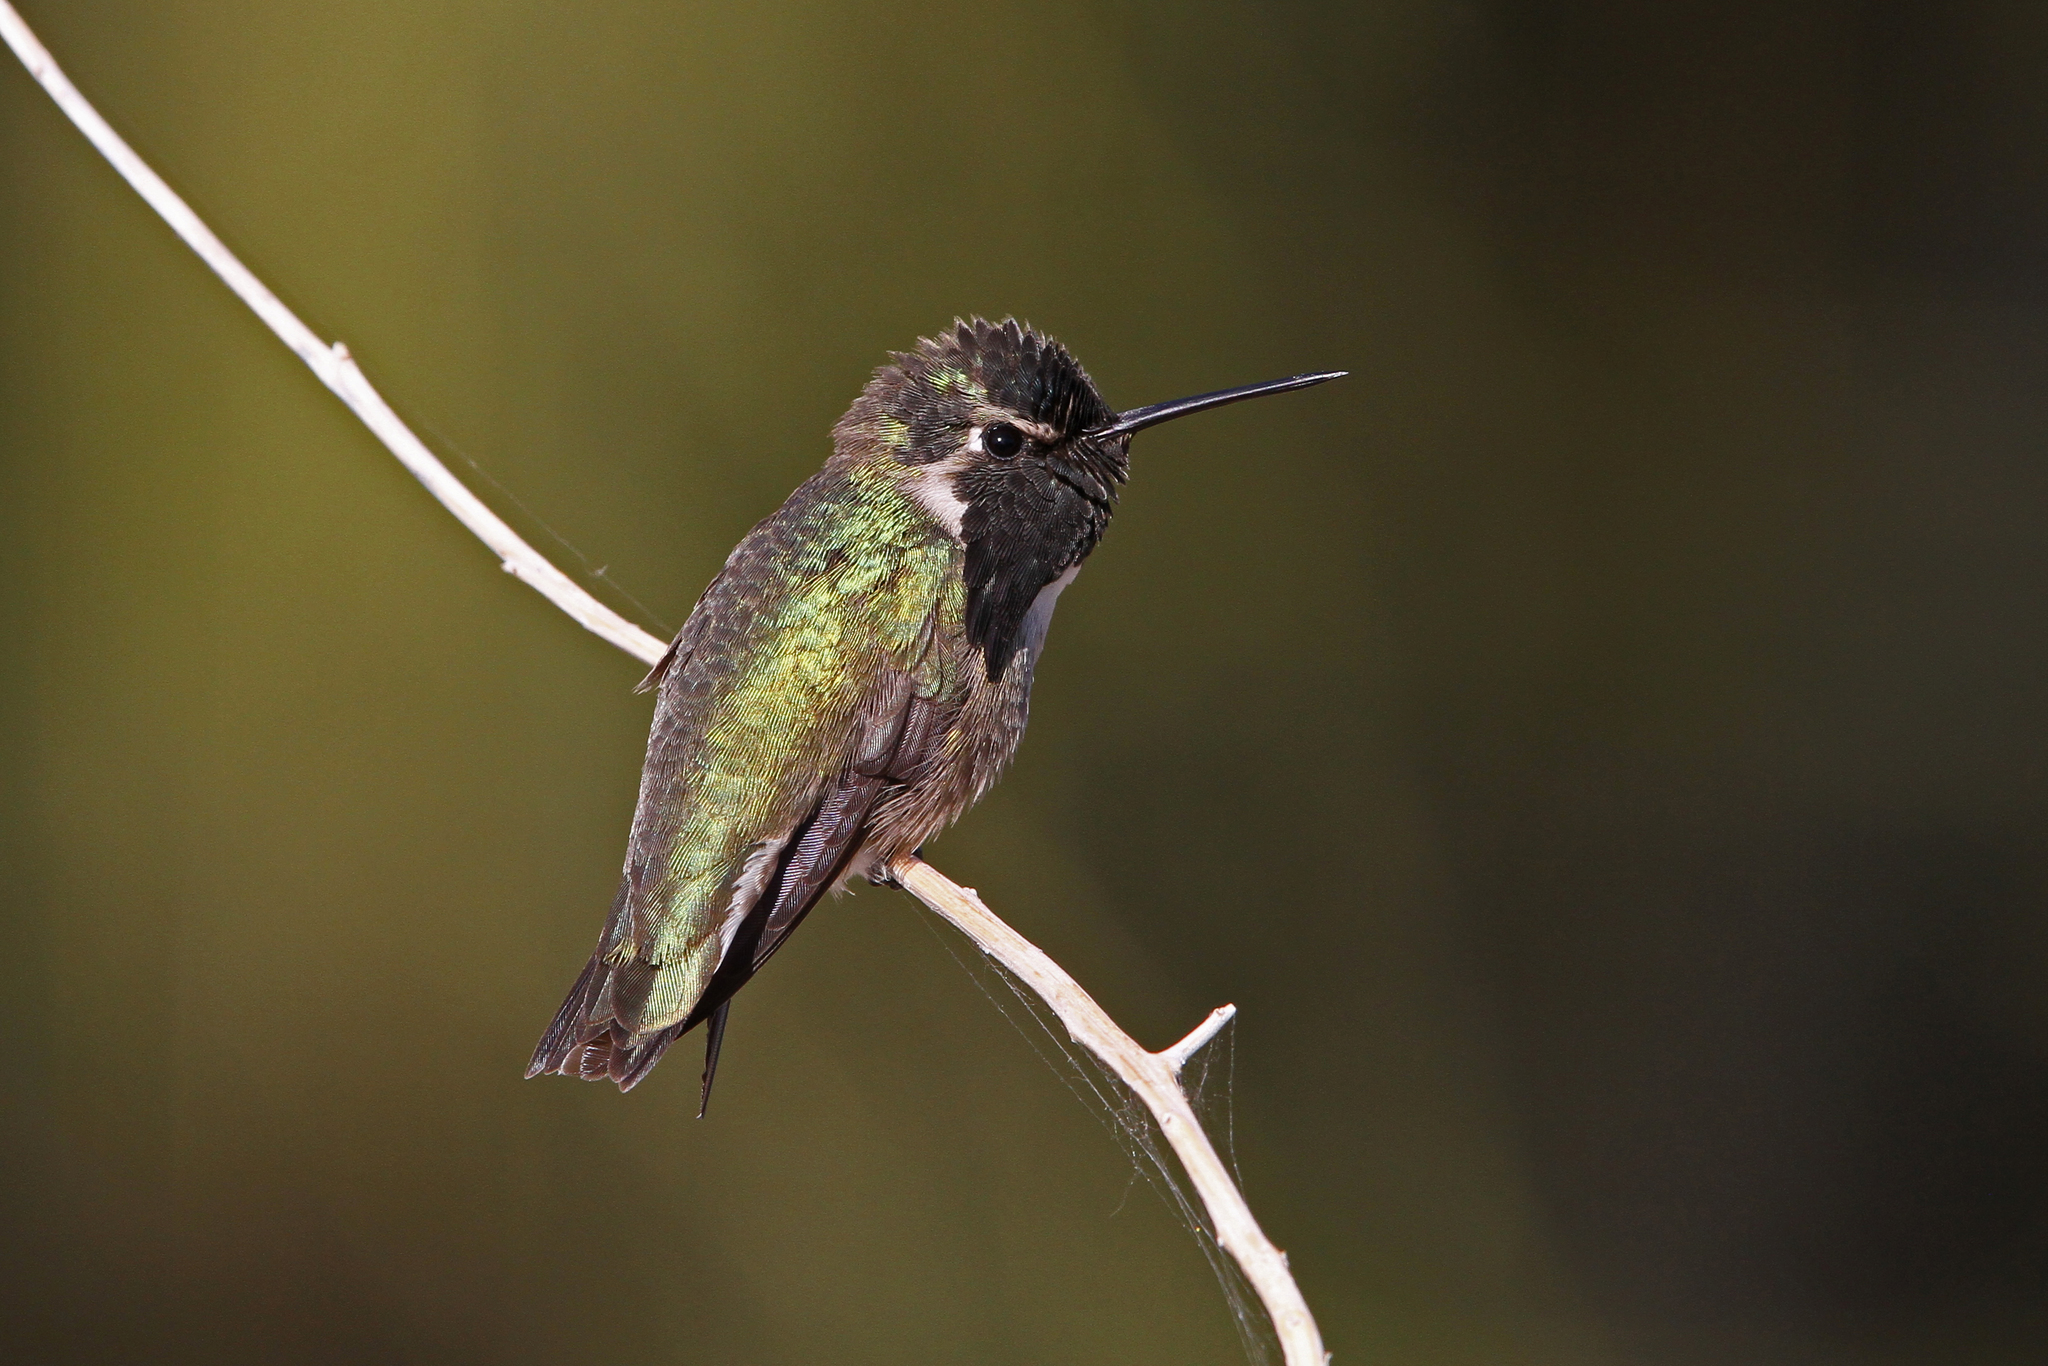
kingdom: Animalia
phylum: Chordata
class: Aves
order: Apodiformes
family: Trochilidae
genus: Calypte
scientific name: Calypte costae
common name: Costa's hummingbird
